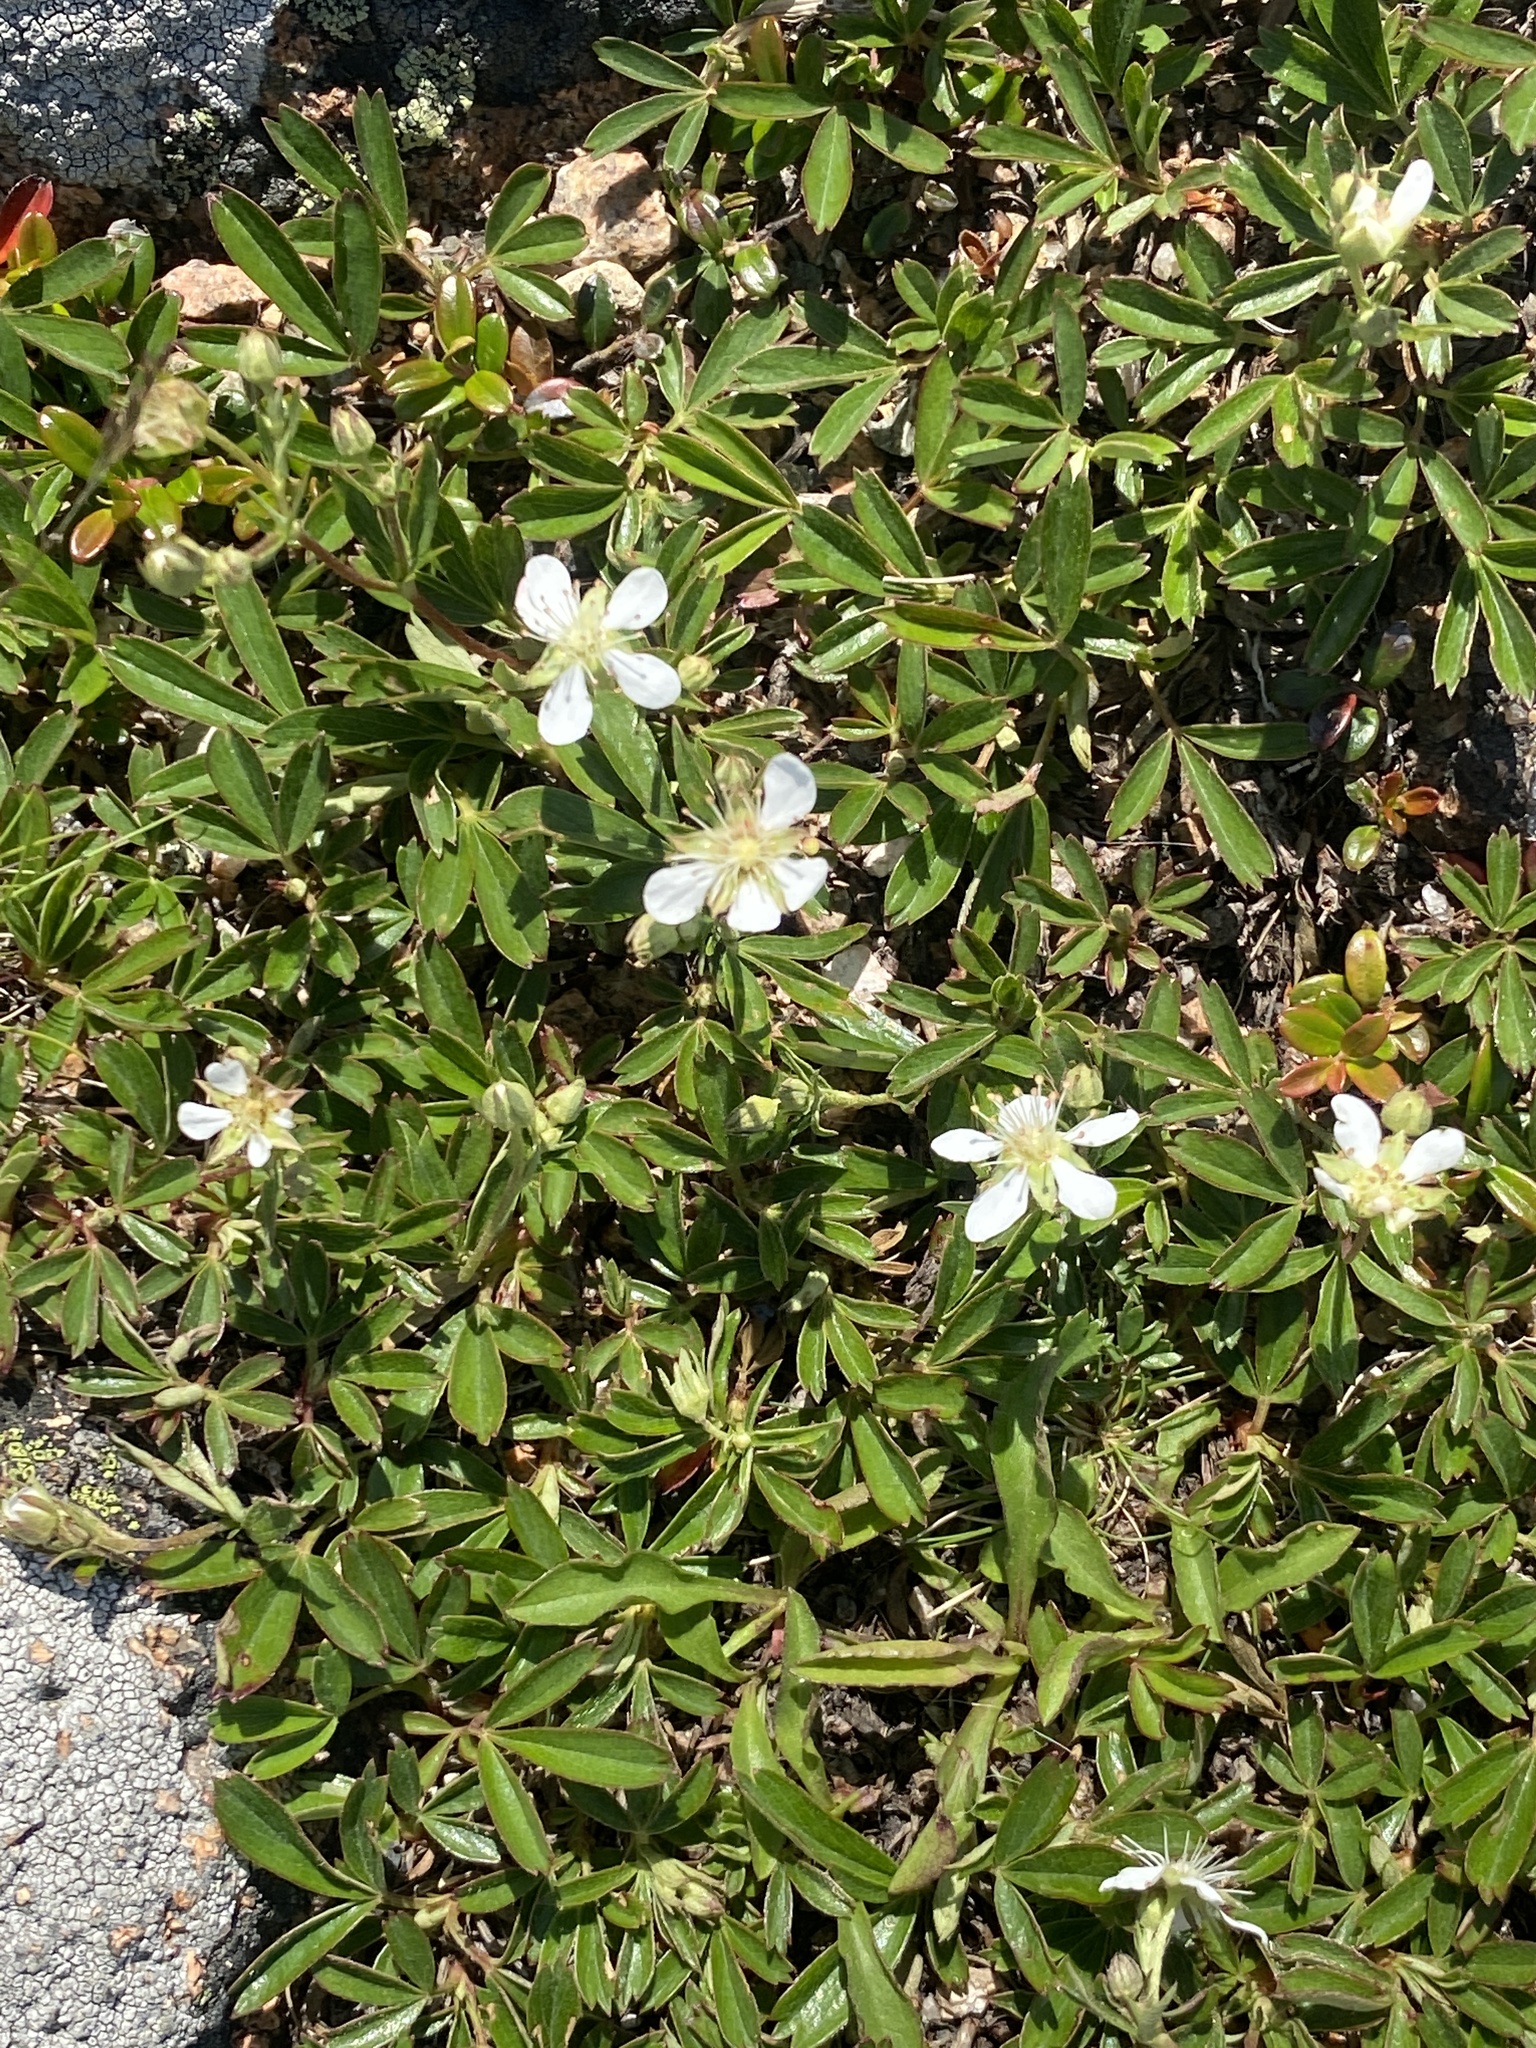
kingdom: Plantae
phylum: Tracheophyta
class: Magnoliopsida
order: Rosales
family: Rosaceae
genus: Sibbaldia
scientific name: Sibbaldia tridentata
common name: Three-toothed cinquefoil
